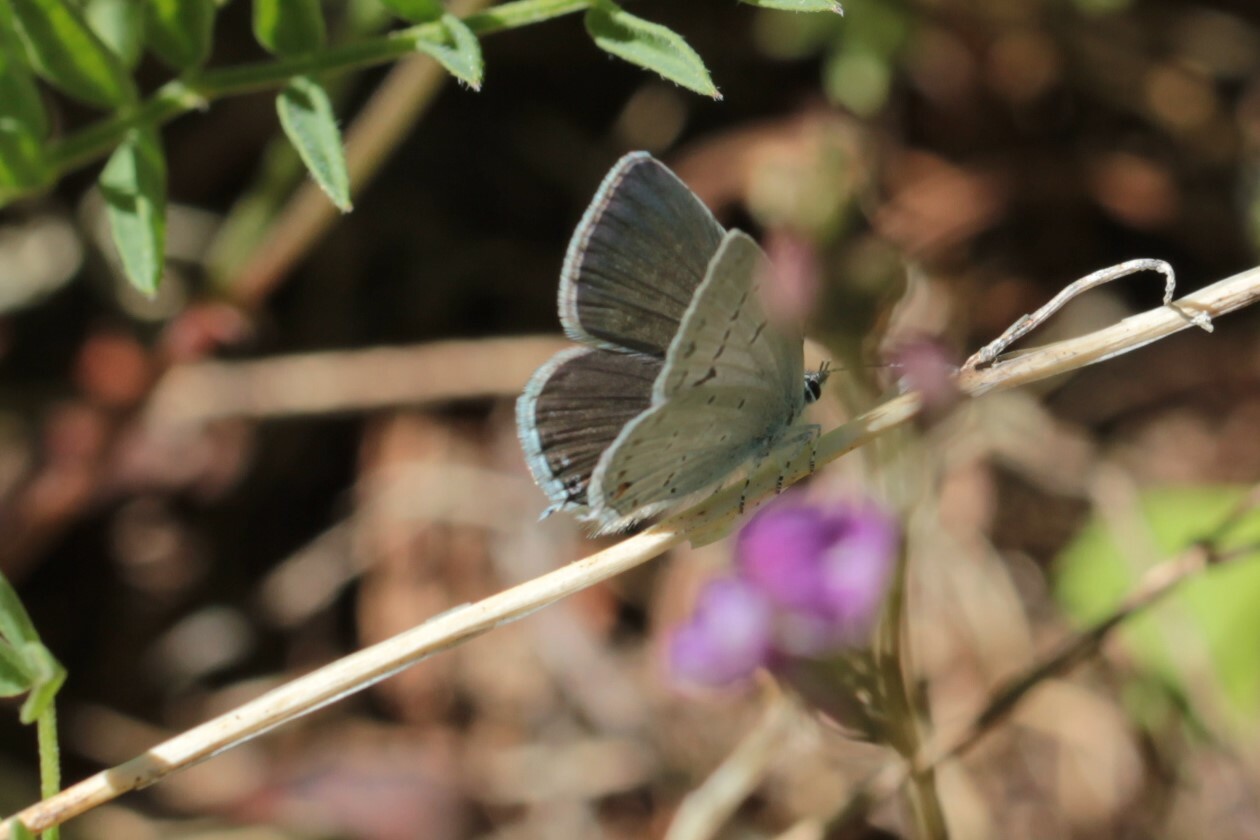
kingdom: Animalia
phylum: Arthropoda
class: Insecta
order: Lepidoptera
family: Lycaenidae
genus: Elkalyce
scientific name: Elkalyce amyntula
